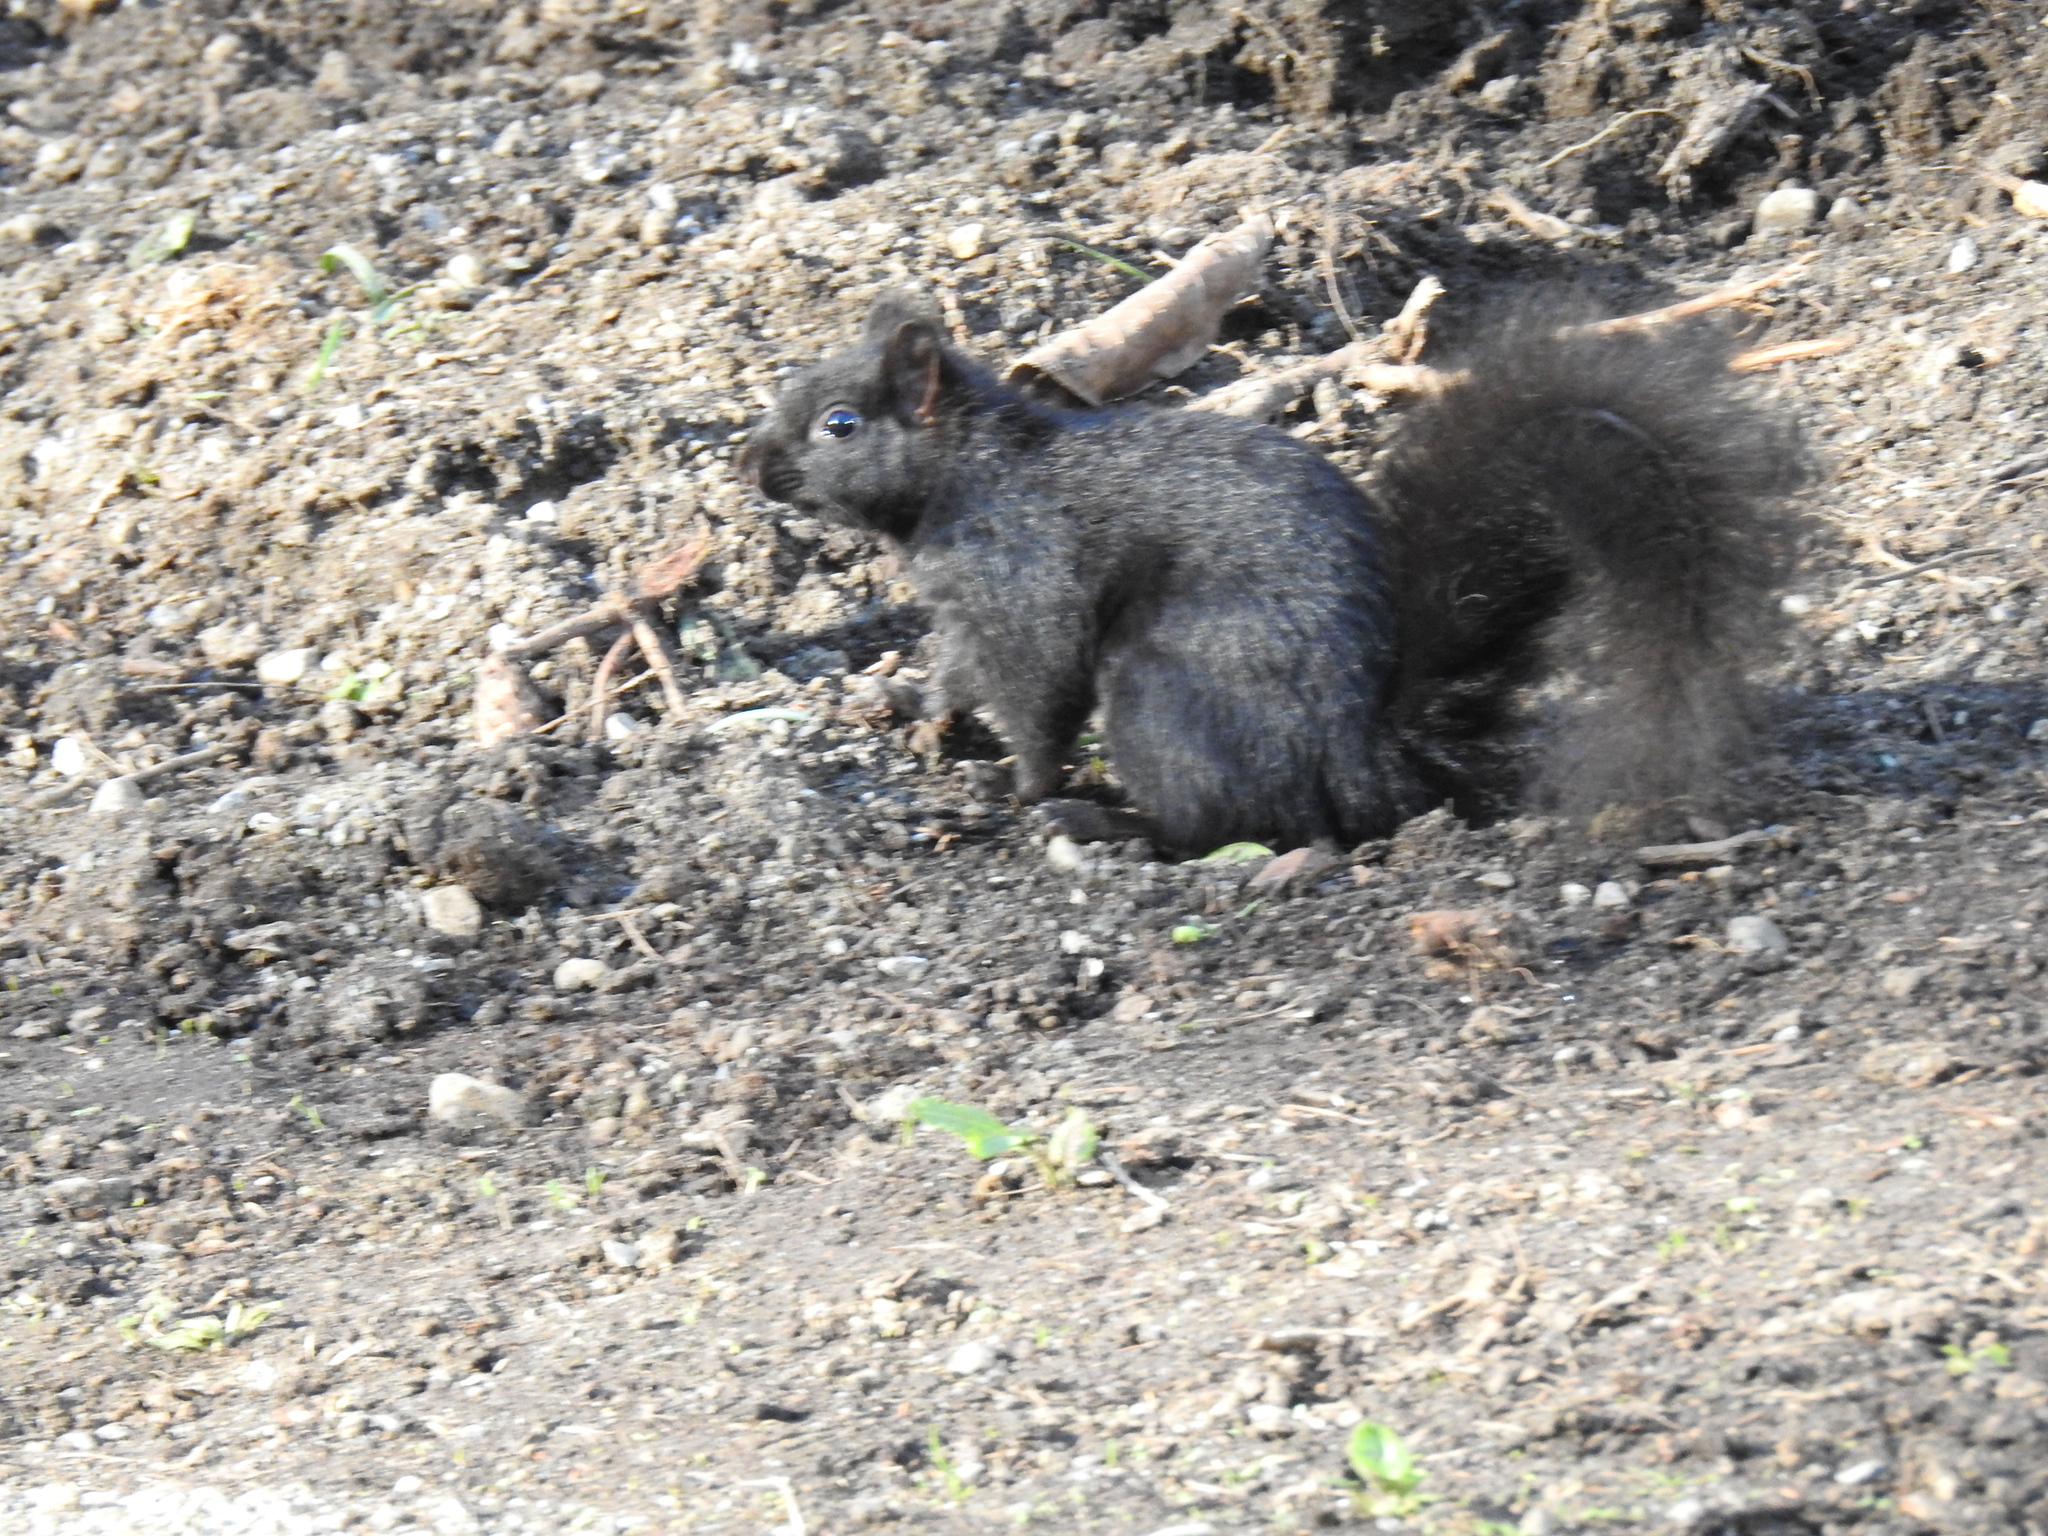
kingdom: Animalia
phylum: Chordata
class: Mammalia
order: Rodentia
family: Sciuridae
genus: Sciurus
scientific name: Sciurus carolinensis
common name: Eastern gray squirrel
